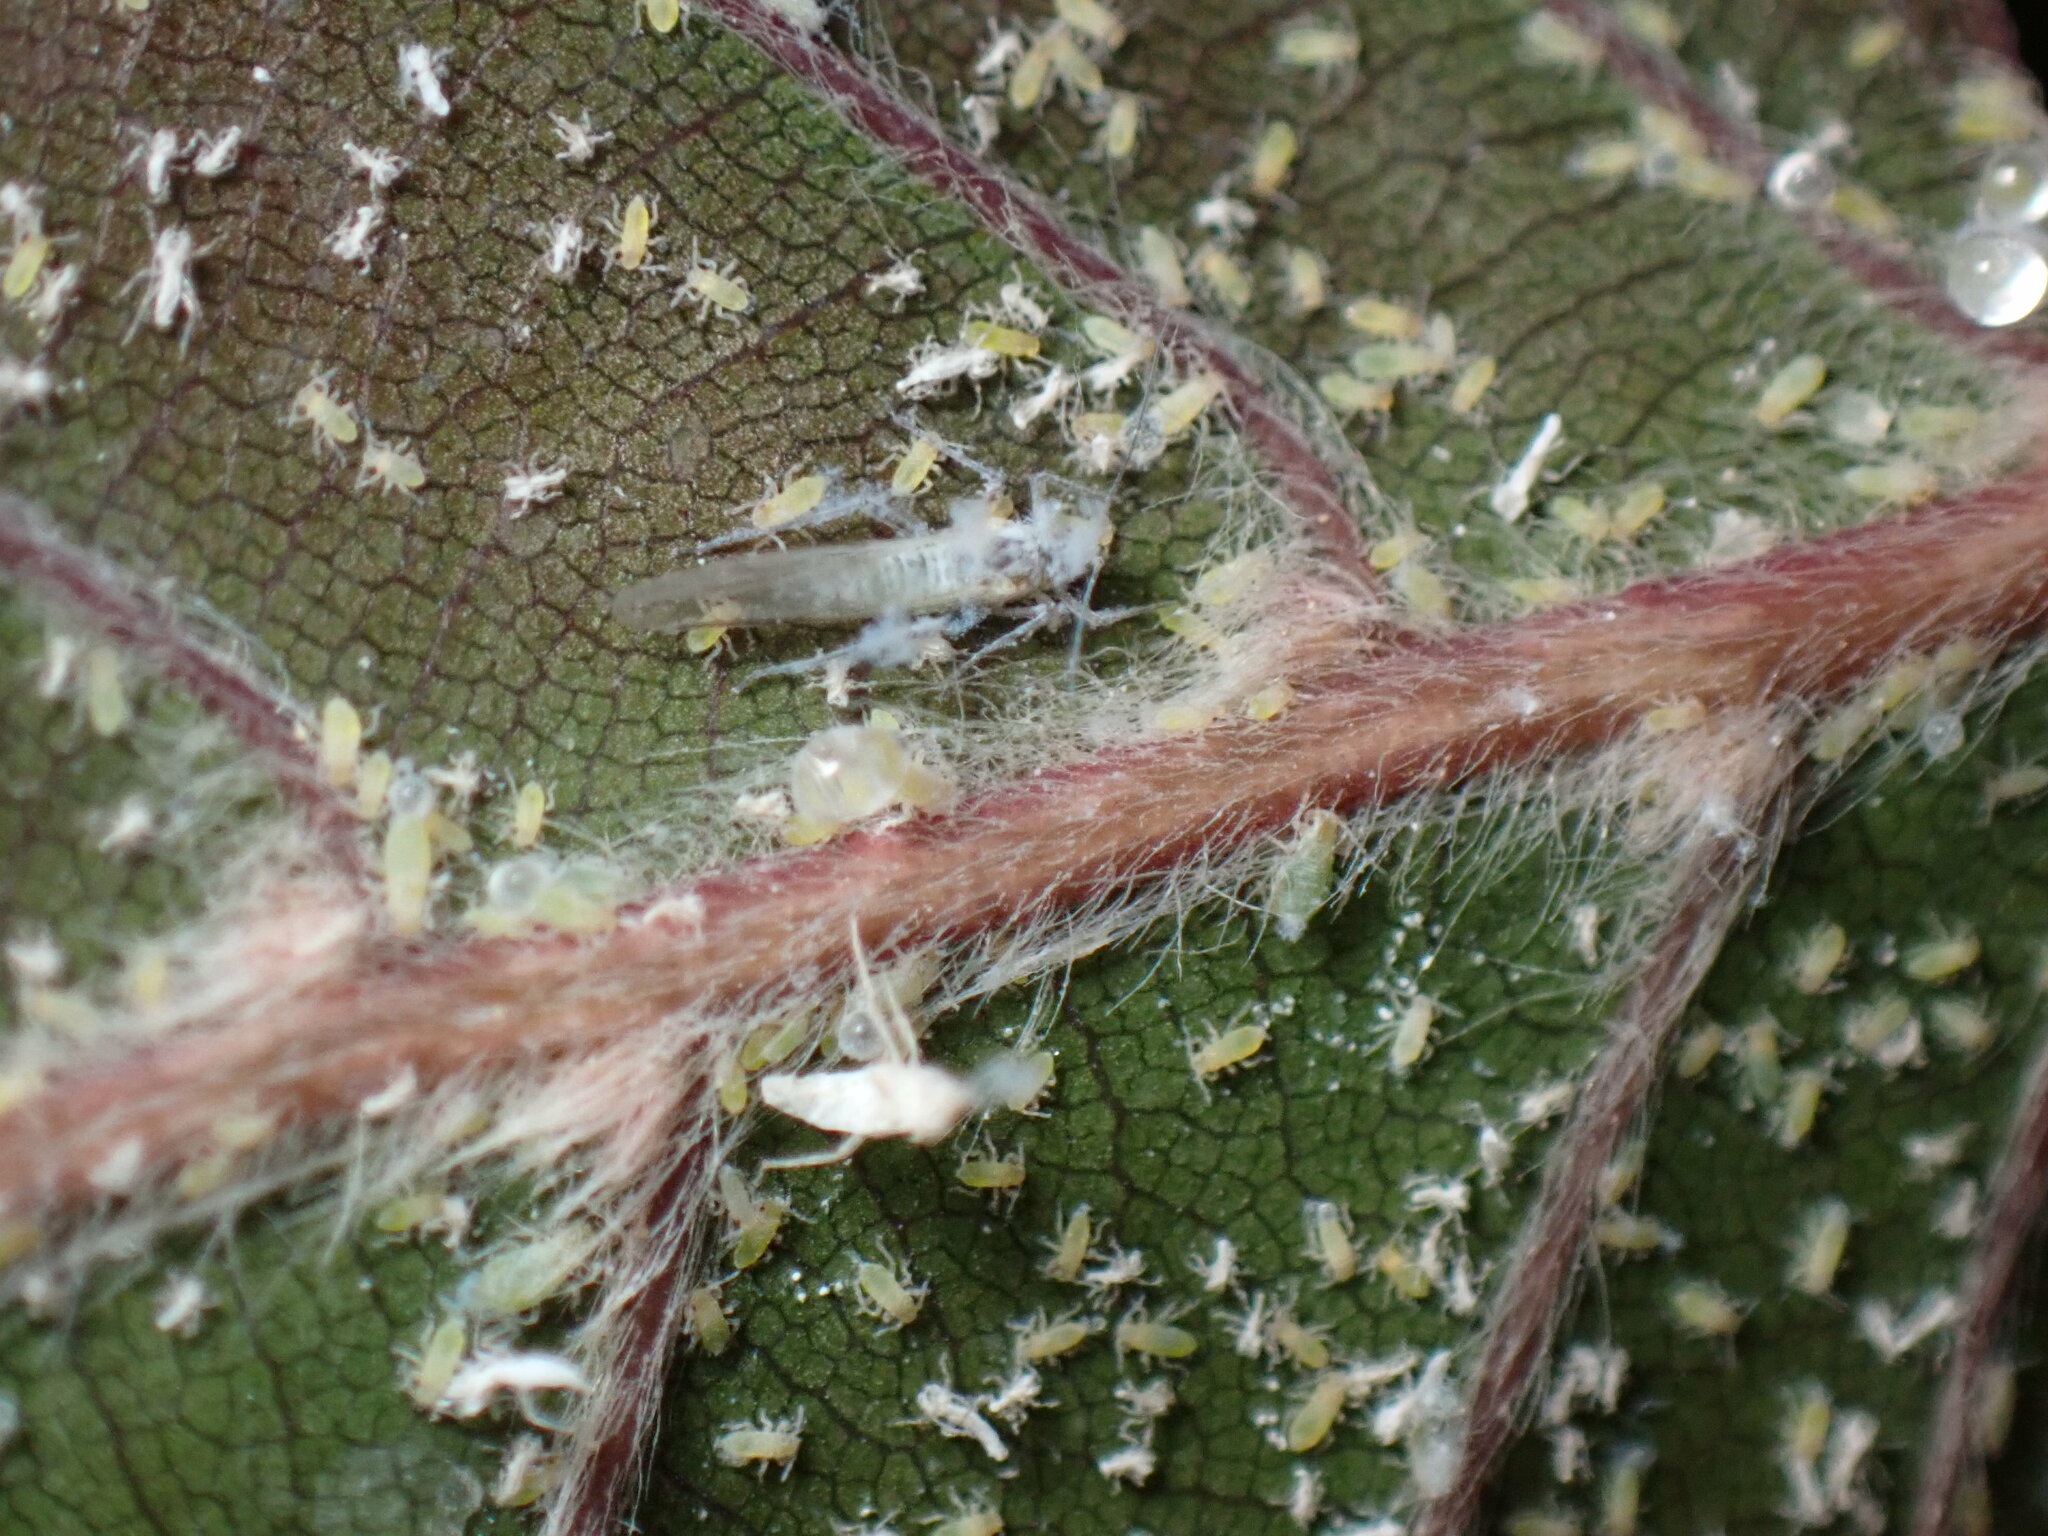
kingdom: Animalia
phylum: Arthropoda
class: Insecta
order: Hemiptera
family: Aphididae
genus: Phyllaphis
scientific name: Phyllaphis fagi
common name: Beech aphid
